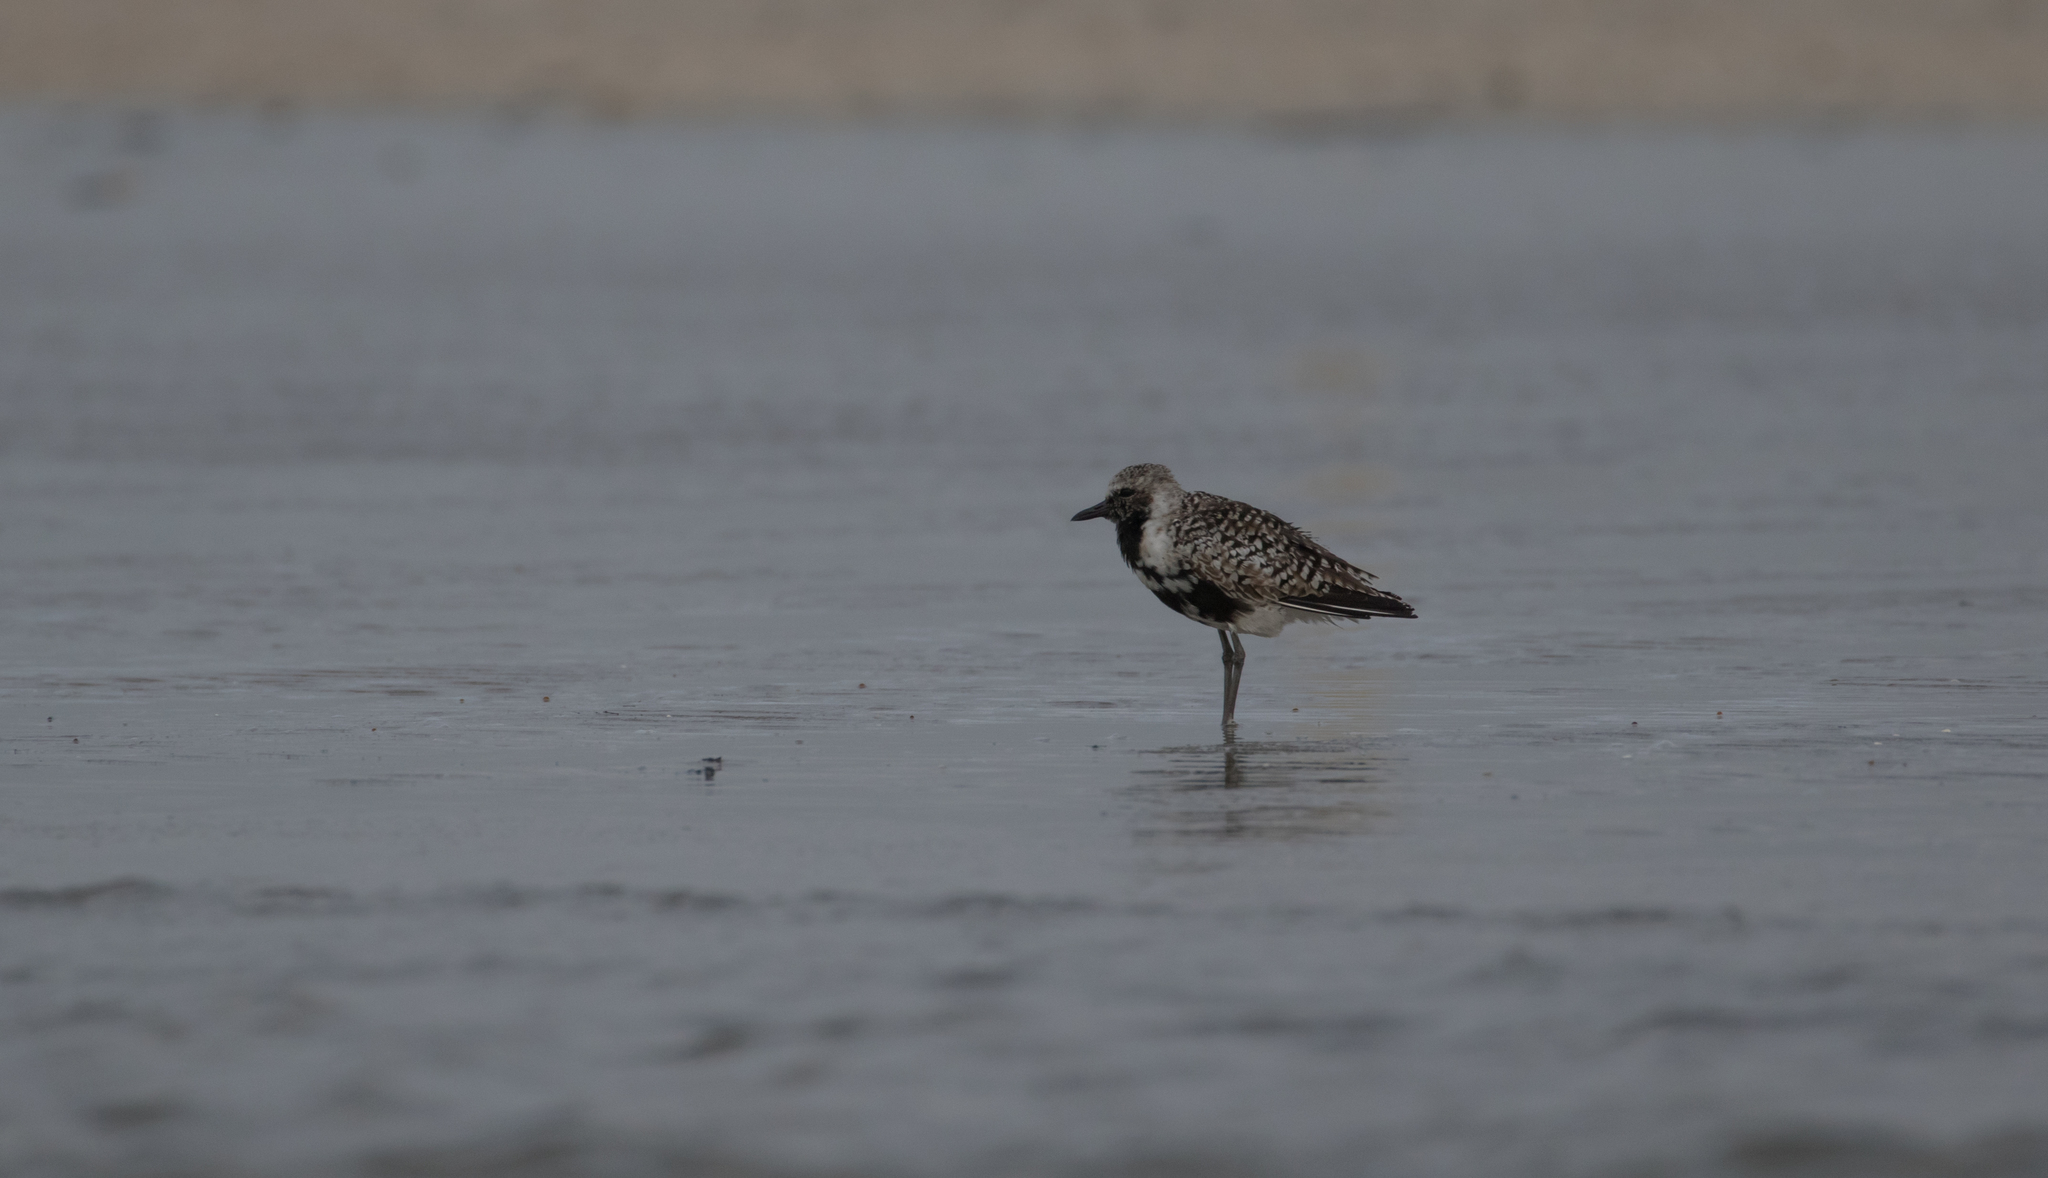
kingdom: Animalia
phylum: Chordata
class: Aves
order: Charadriiformes
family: Charadriidae
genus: Pluvialis
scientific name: Pluvialis squatarola
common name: Grey plover
